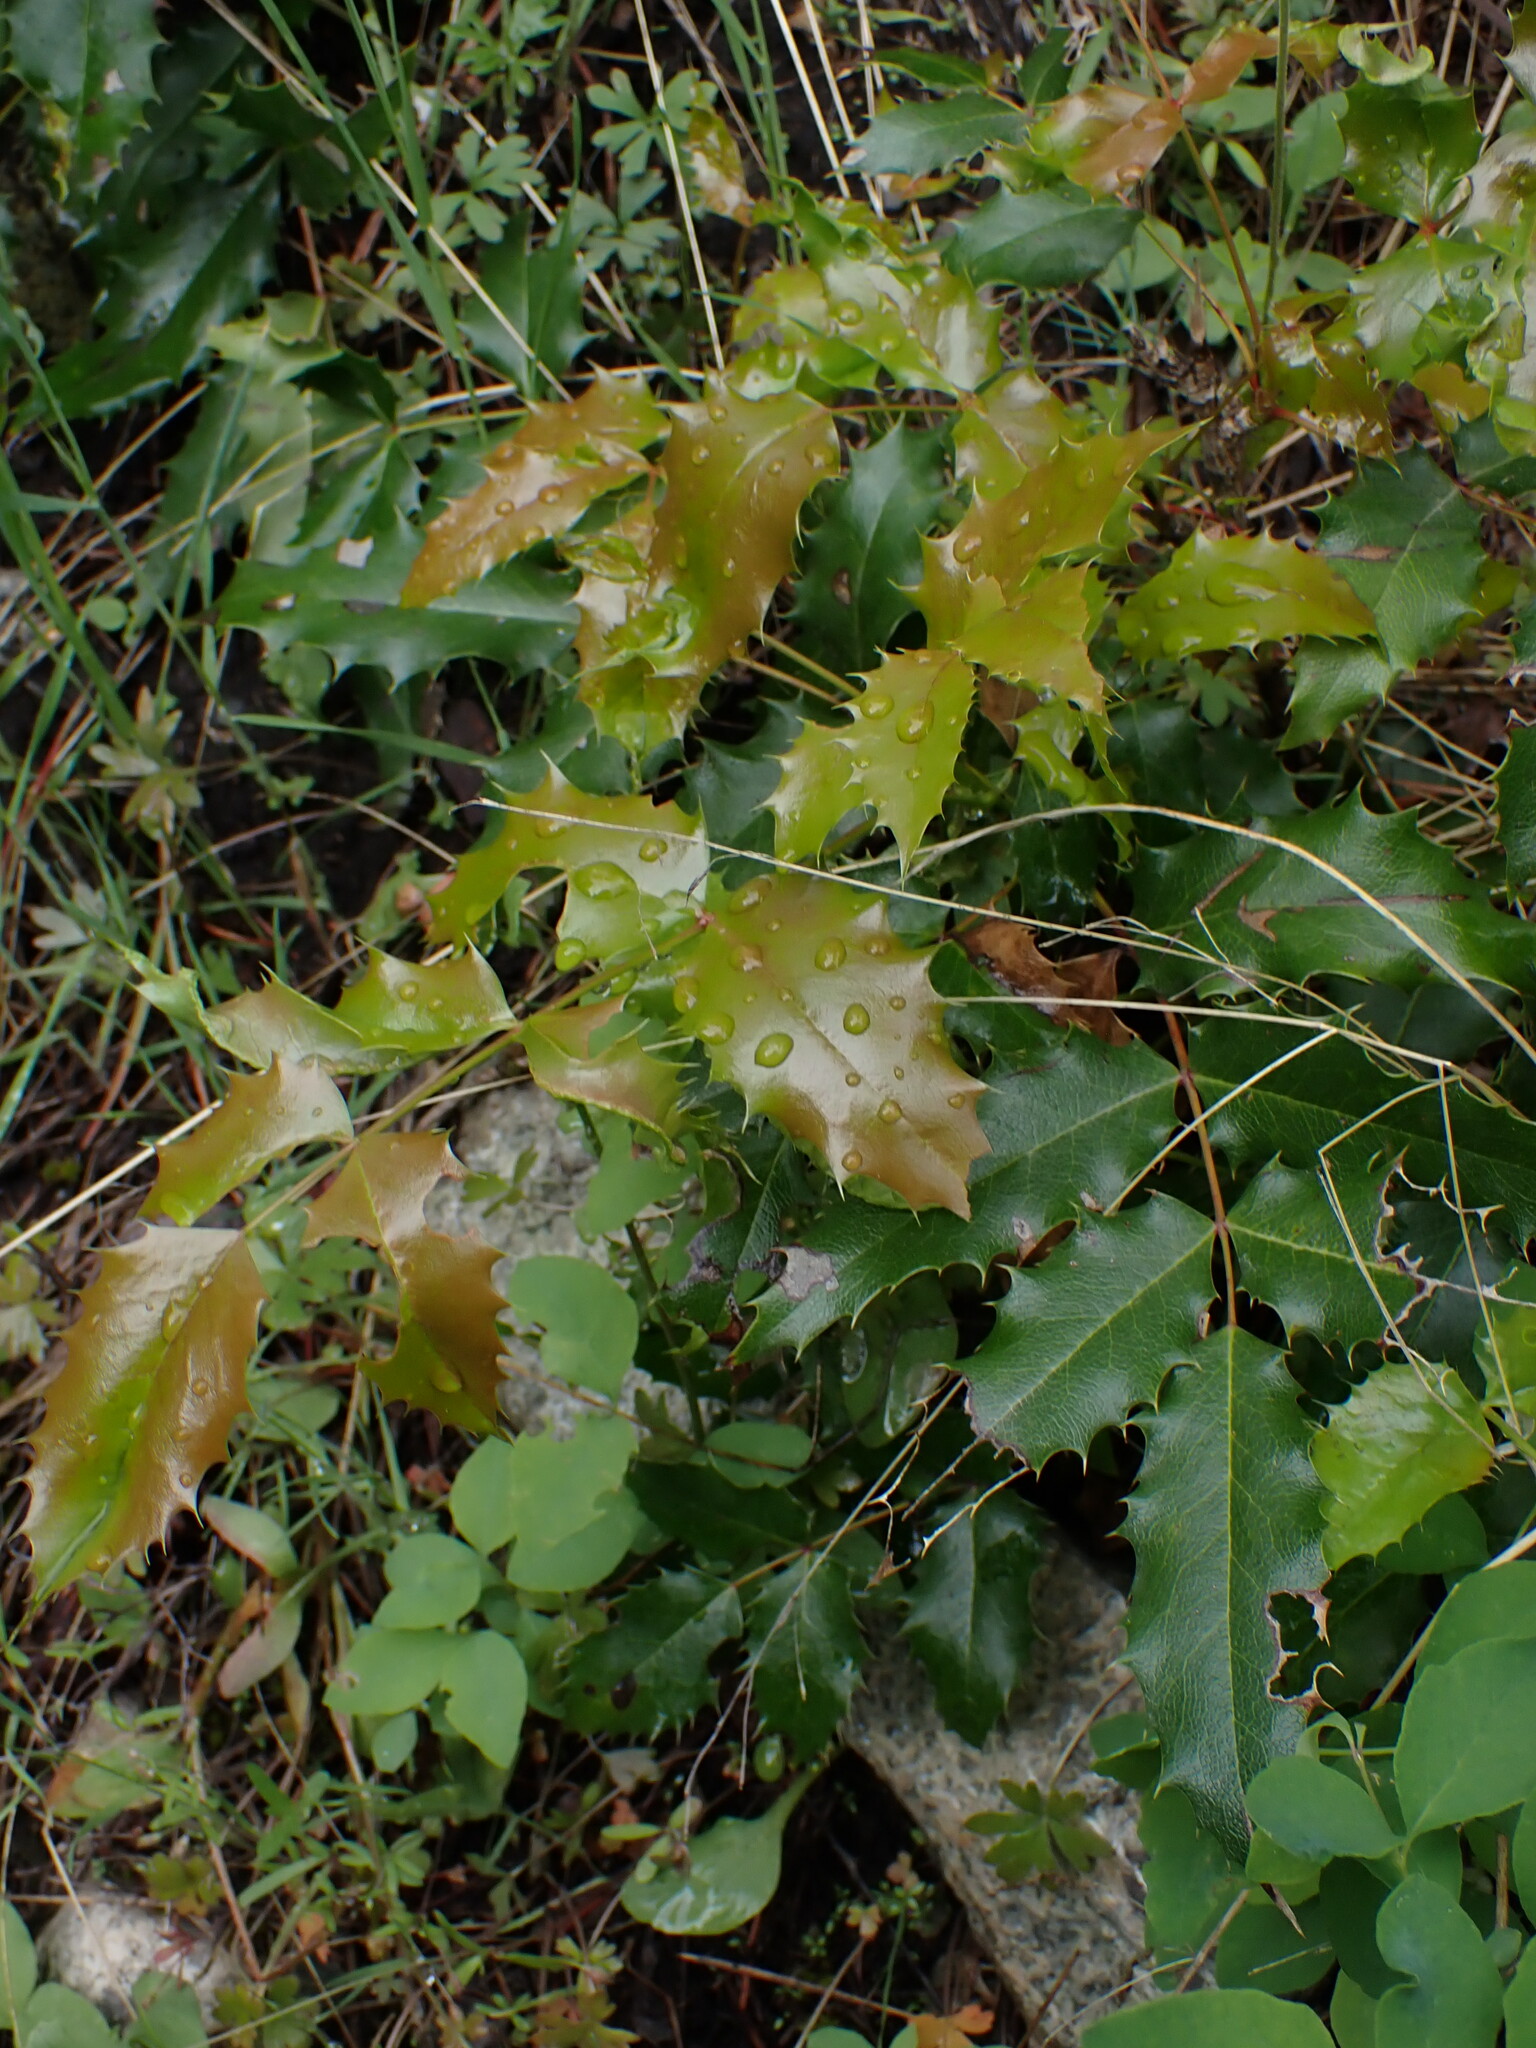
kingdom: Plantae
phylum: Tracheophyta
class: Magnoliopsida
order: Ranunculales
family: Berberidaceae
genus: Mahonia
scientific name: Mahonia aquifolium
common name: Oregon-grape
